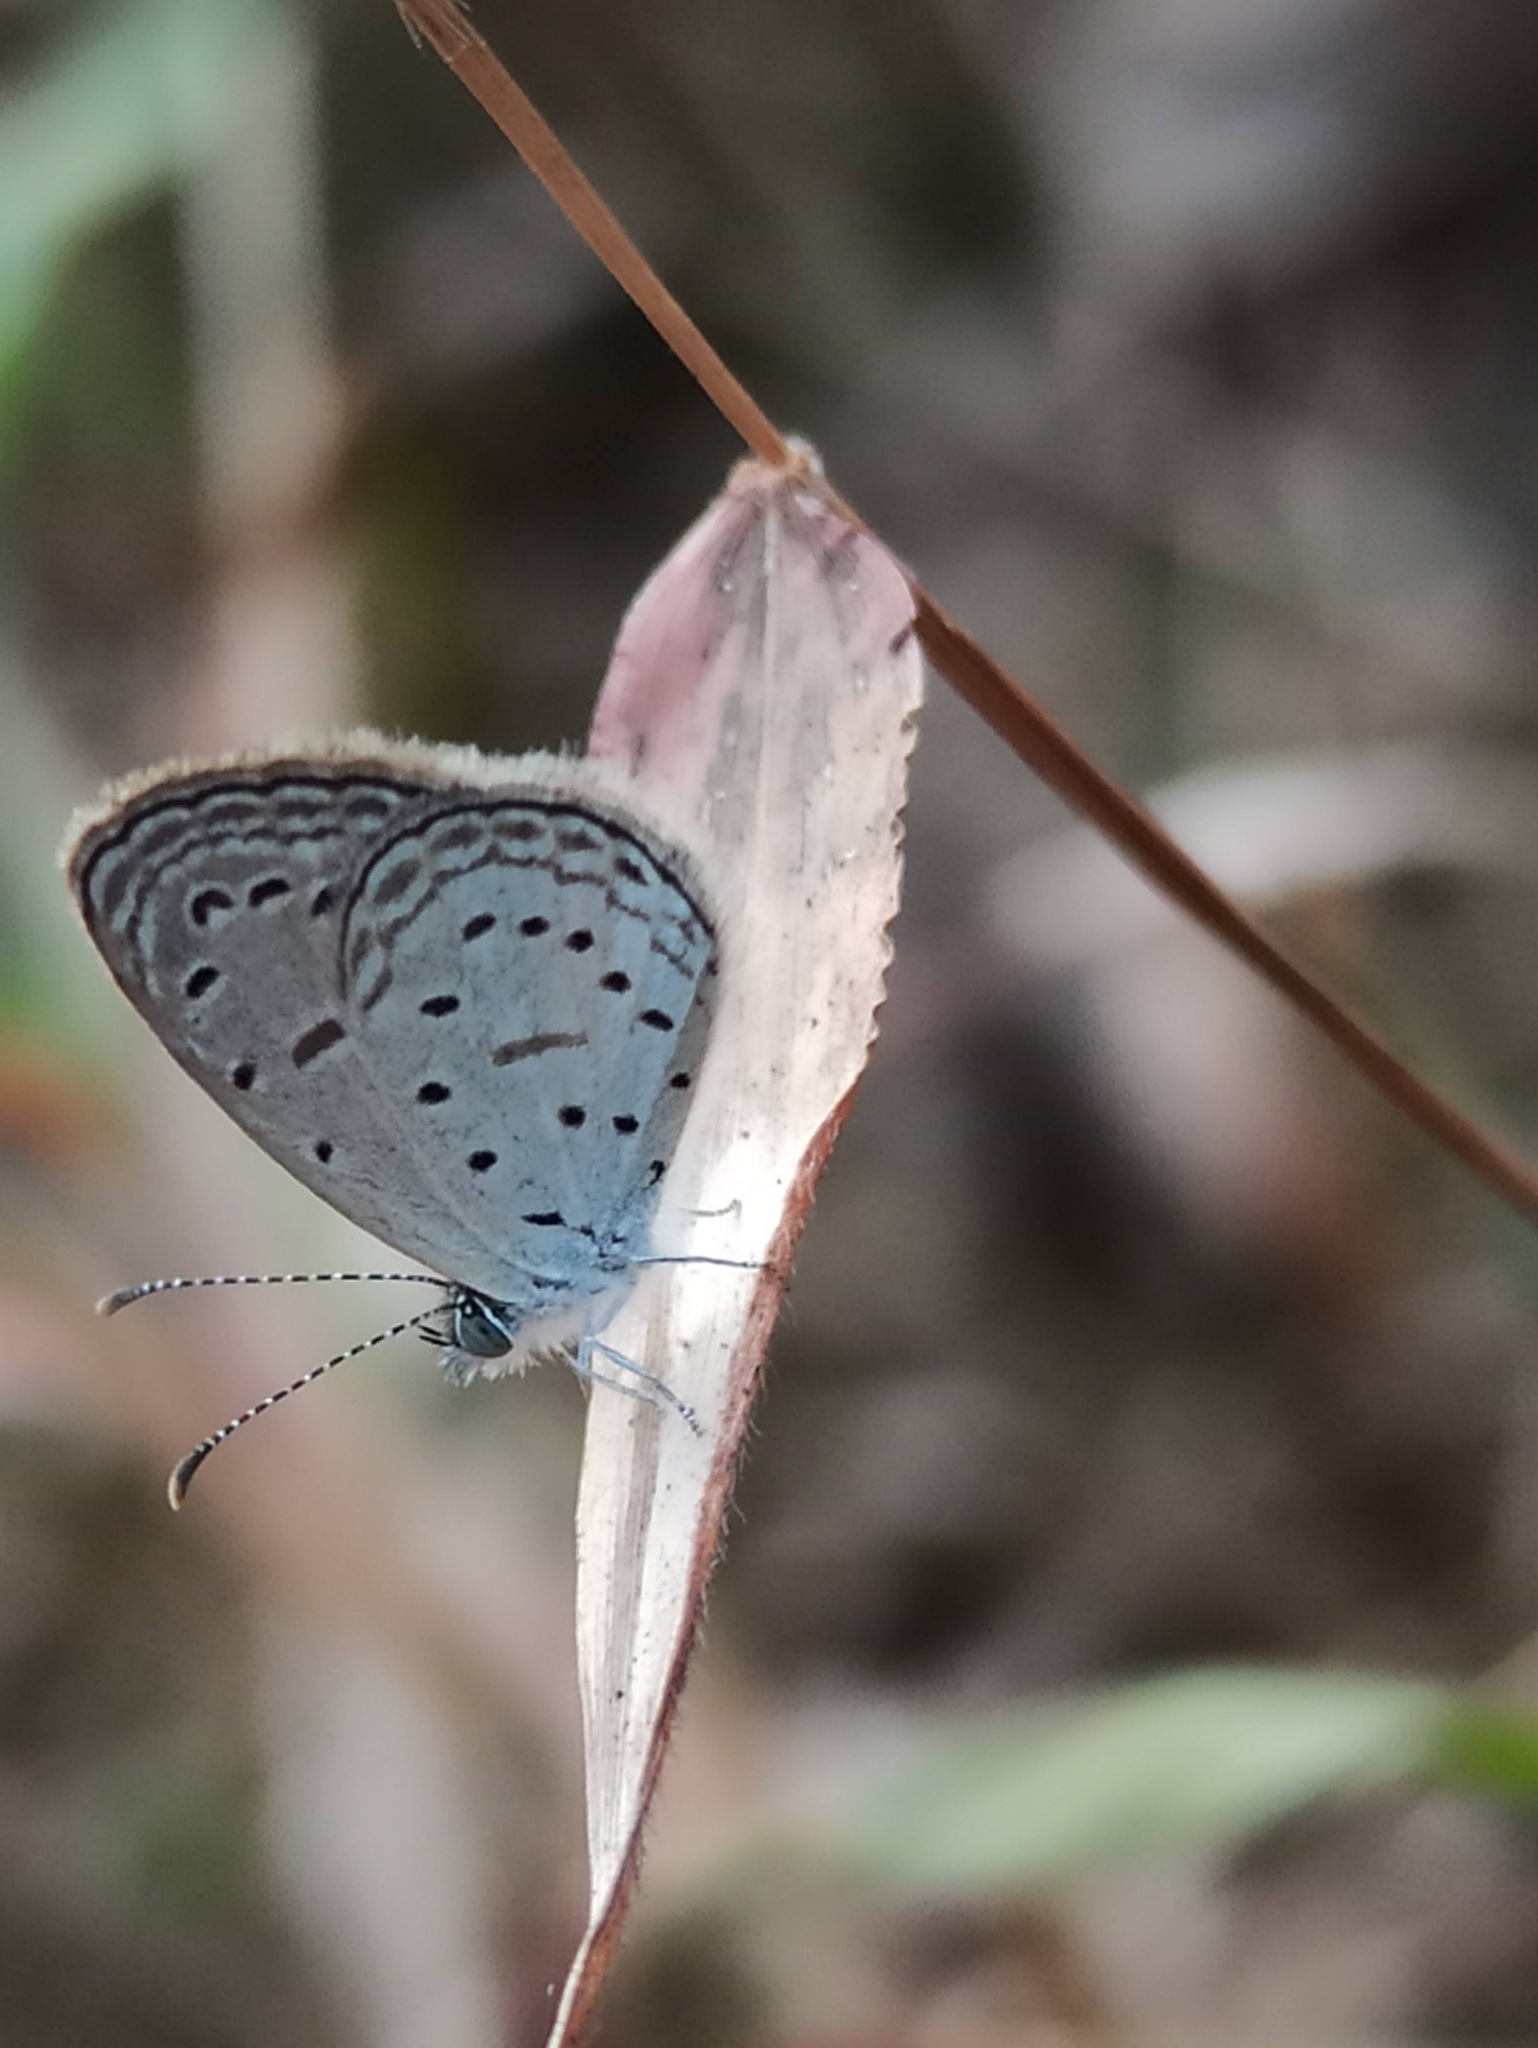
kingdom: Animalia
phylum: Arthropoda
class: Insecta
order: Lepidoptera
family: Lycaenidae
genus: Zizula
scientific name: Zizula hylax
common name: Gaika blue
